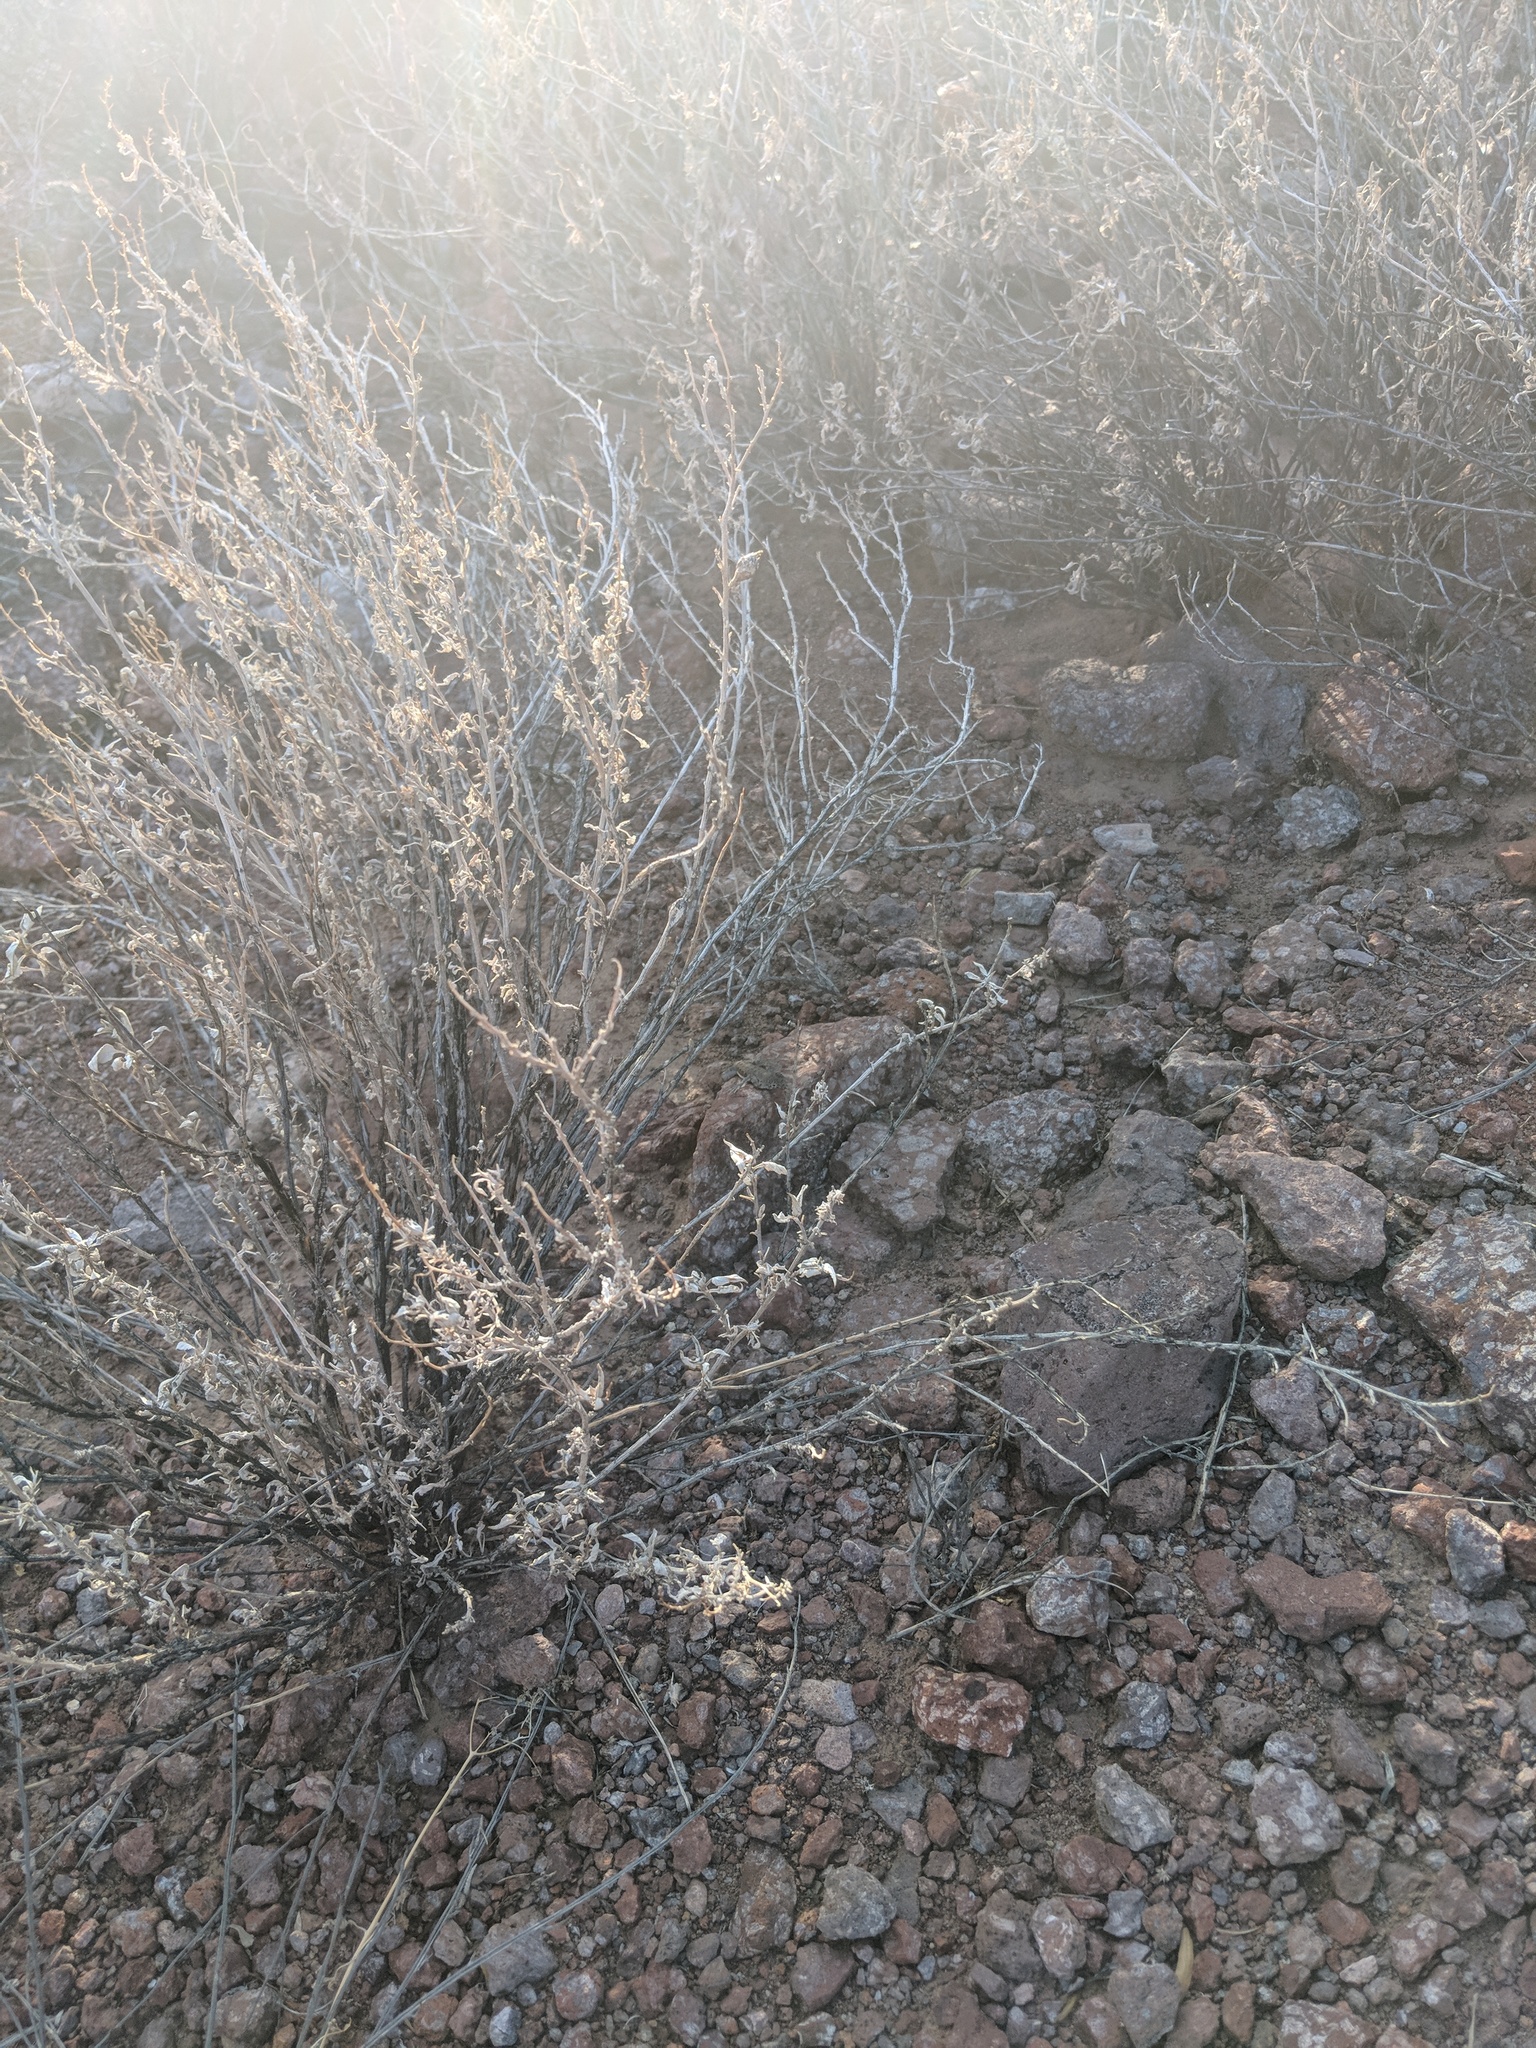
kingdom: Animalia
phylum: Chordata
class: Squamata
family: Phrynosomatidae
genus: Callisaurus
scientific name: Callisaurus draconoides
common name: Zebra-tailed lizard
